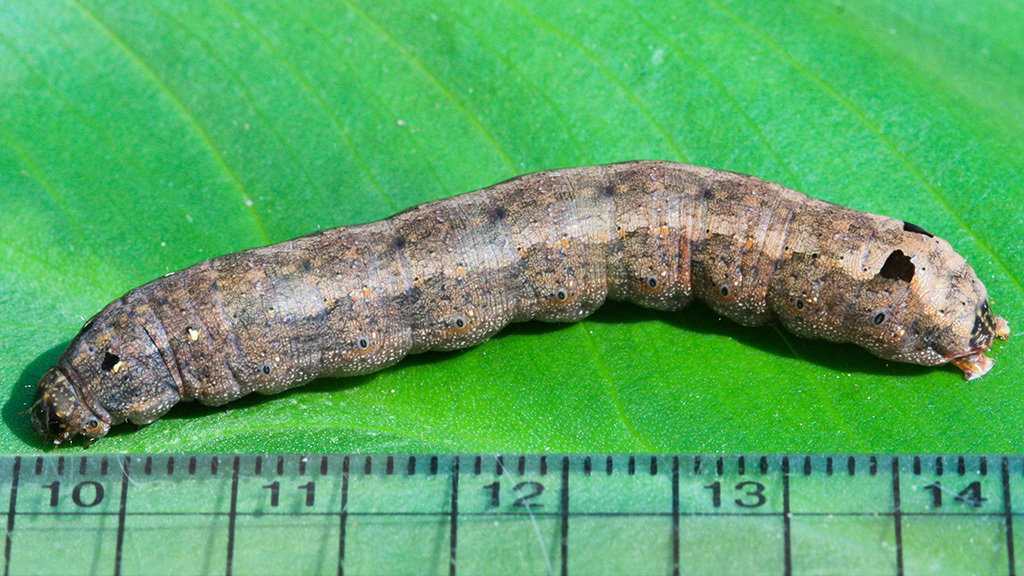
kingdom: Animalia
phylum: Arthropoda
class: Insecta
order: Lepidoptera
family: Noctuidae
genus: Spodoptera
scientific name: Spodoptera littoralis
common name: Egyptian cotton leafworm
